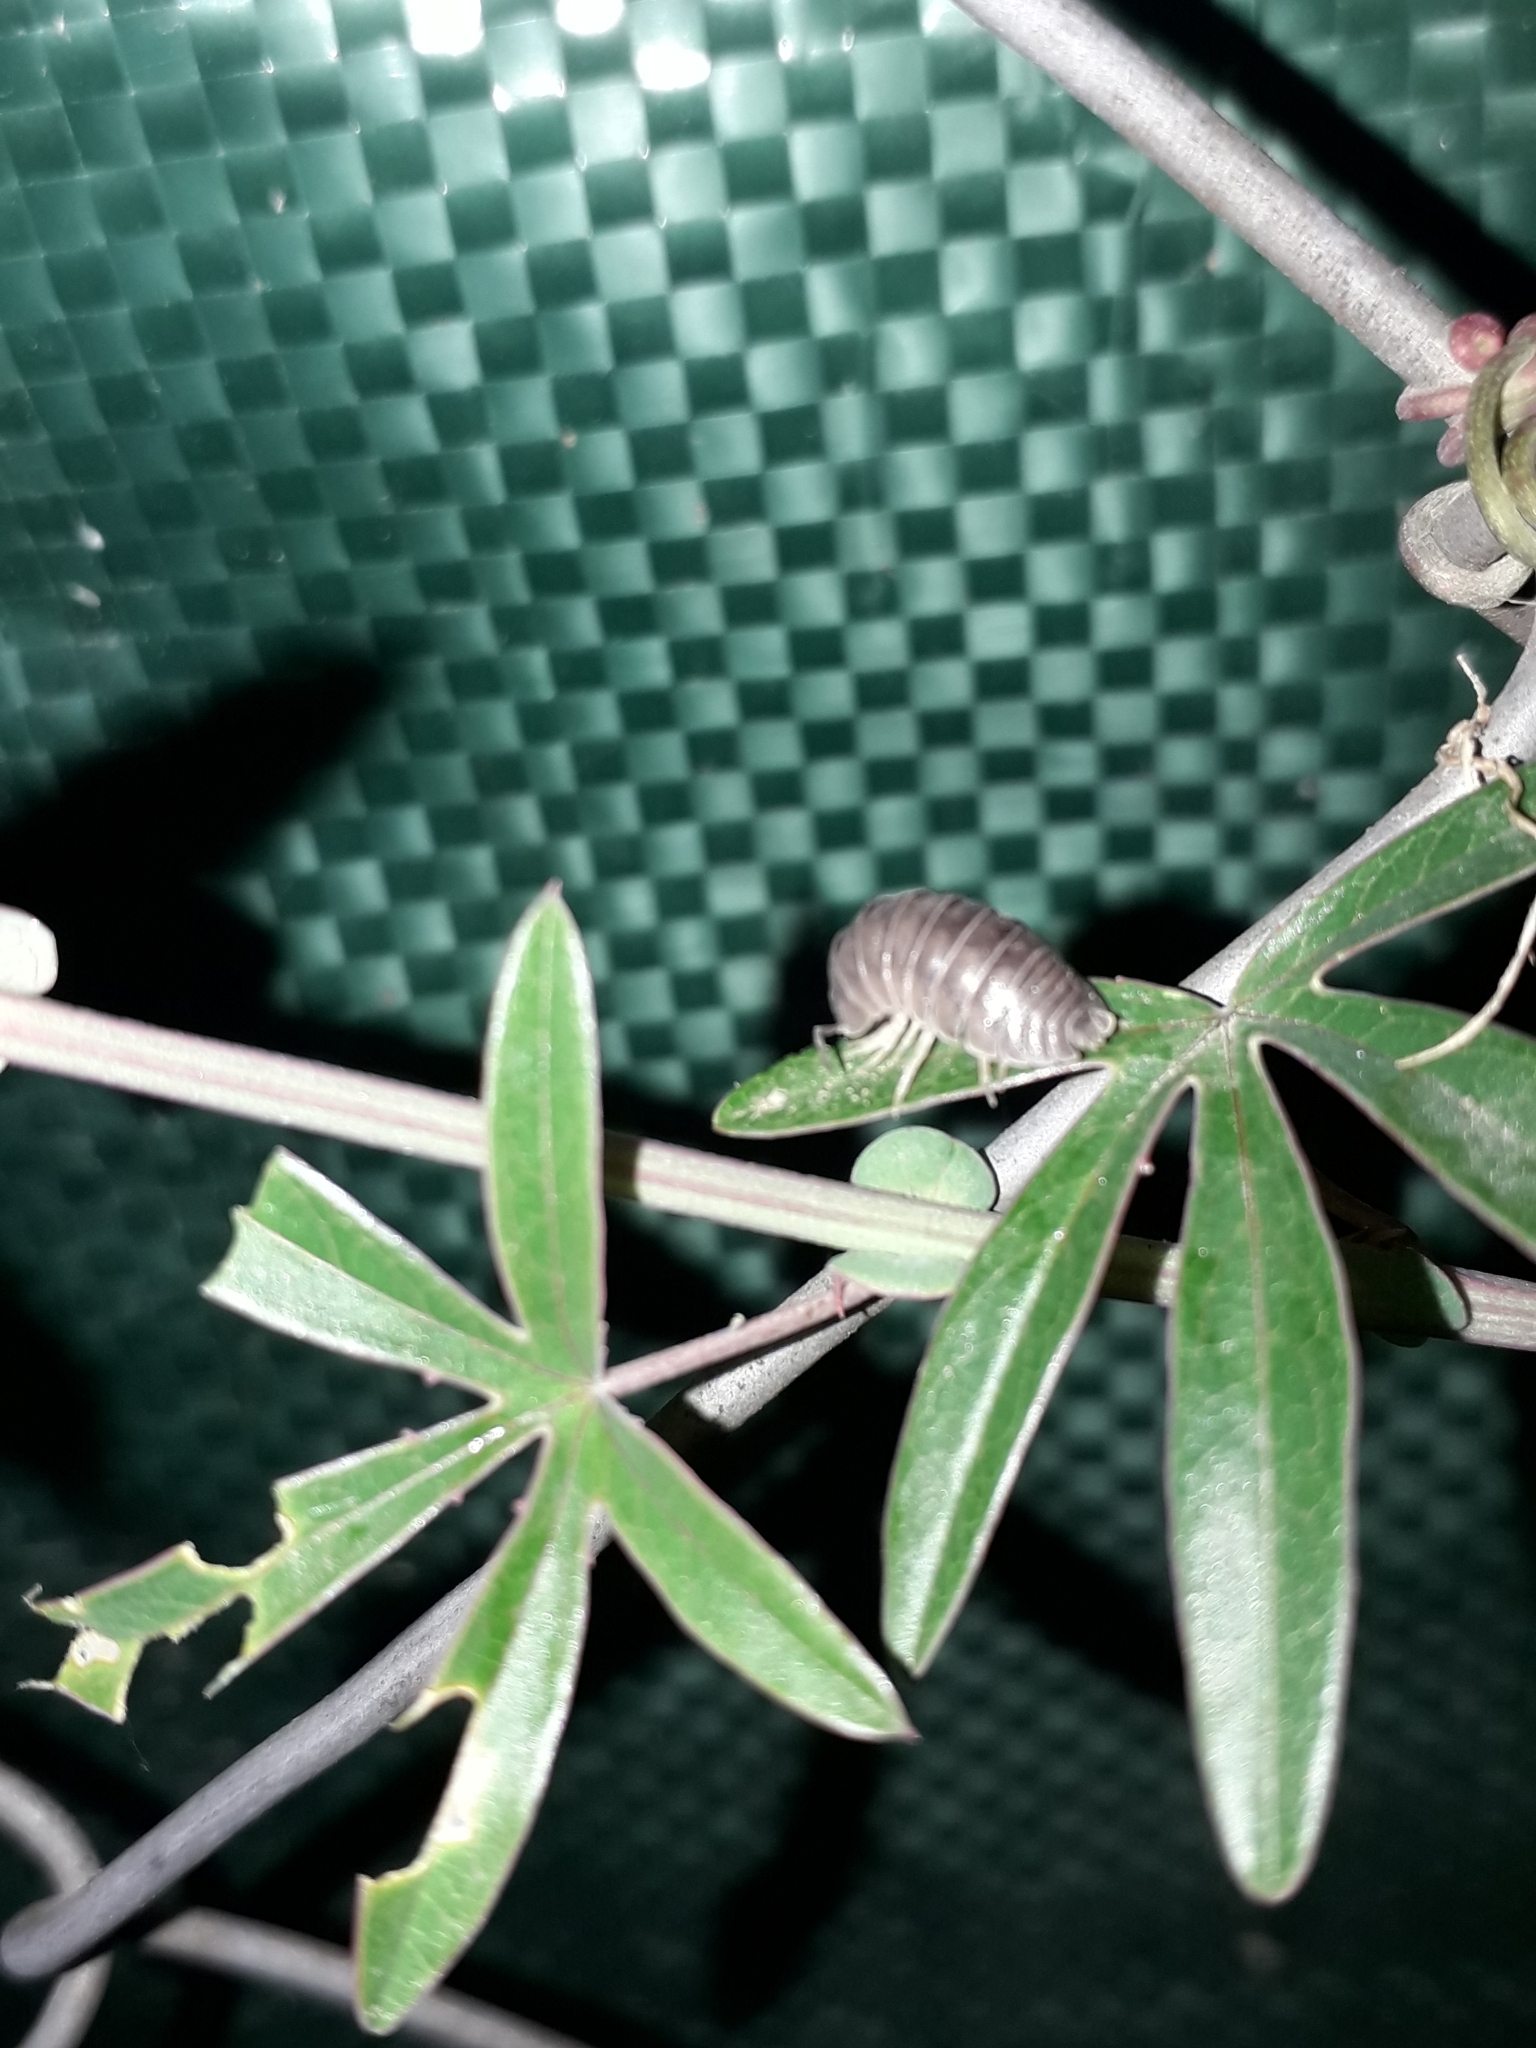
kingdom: Animalia
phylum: Arthropoda
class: Malacostraca
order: Isopoda
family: Armadillidiidae
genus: Armadillidium
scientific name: Armadillidium vulgare
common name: Common pill woodlouse
